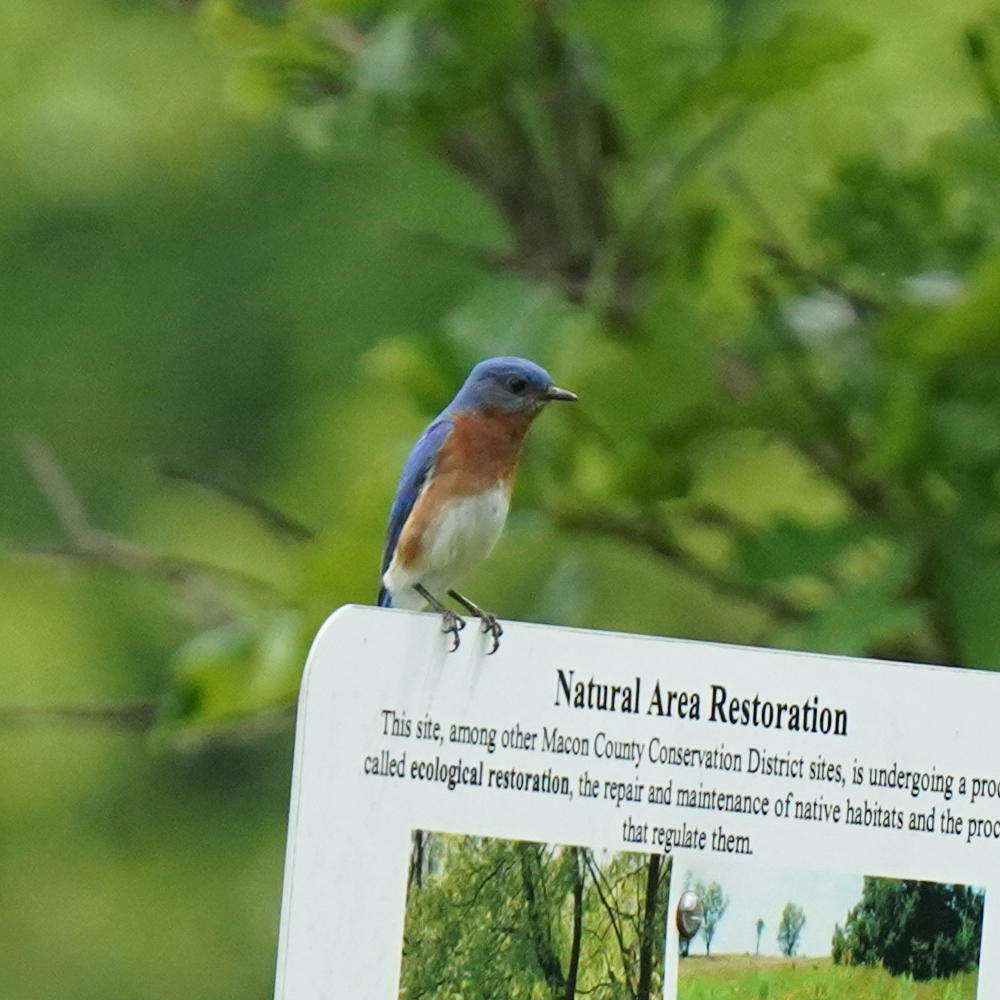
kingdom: Animalia
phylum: Chordata
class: Aves
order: Passeriformes
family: Turdidae
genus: Sialia
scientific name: Sialia sialis
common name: Eastern bluebird
